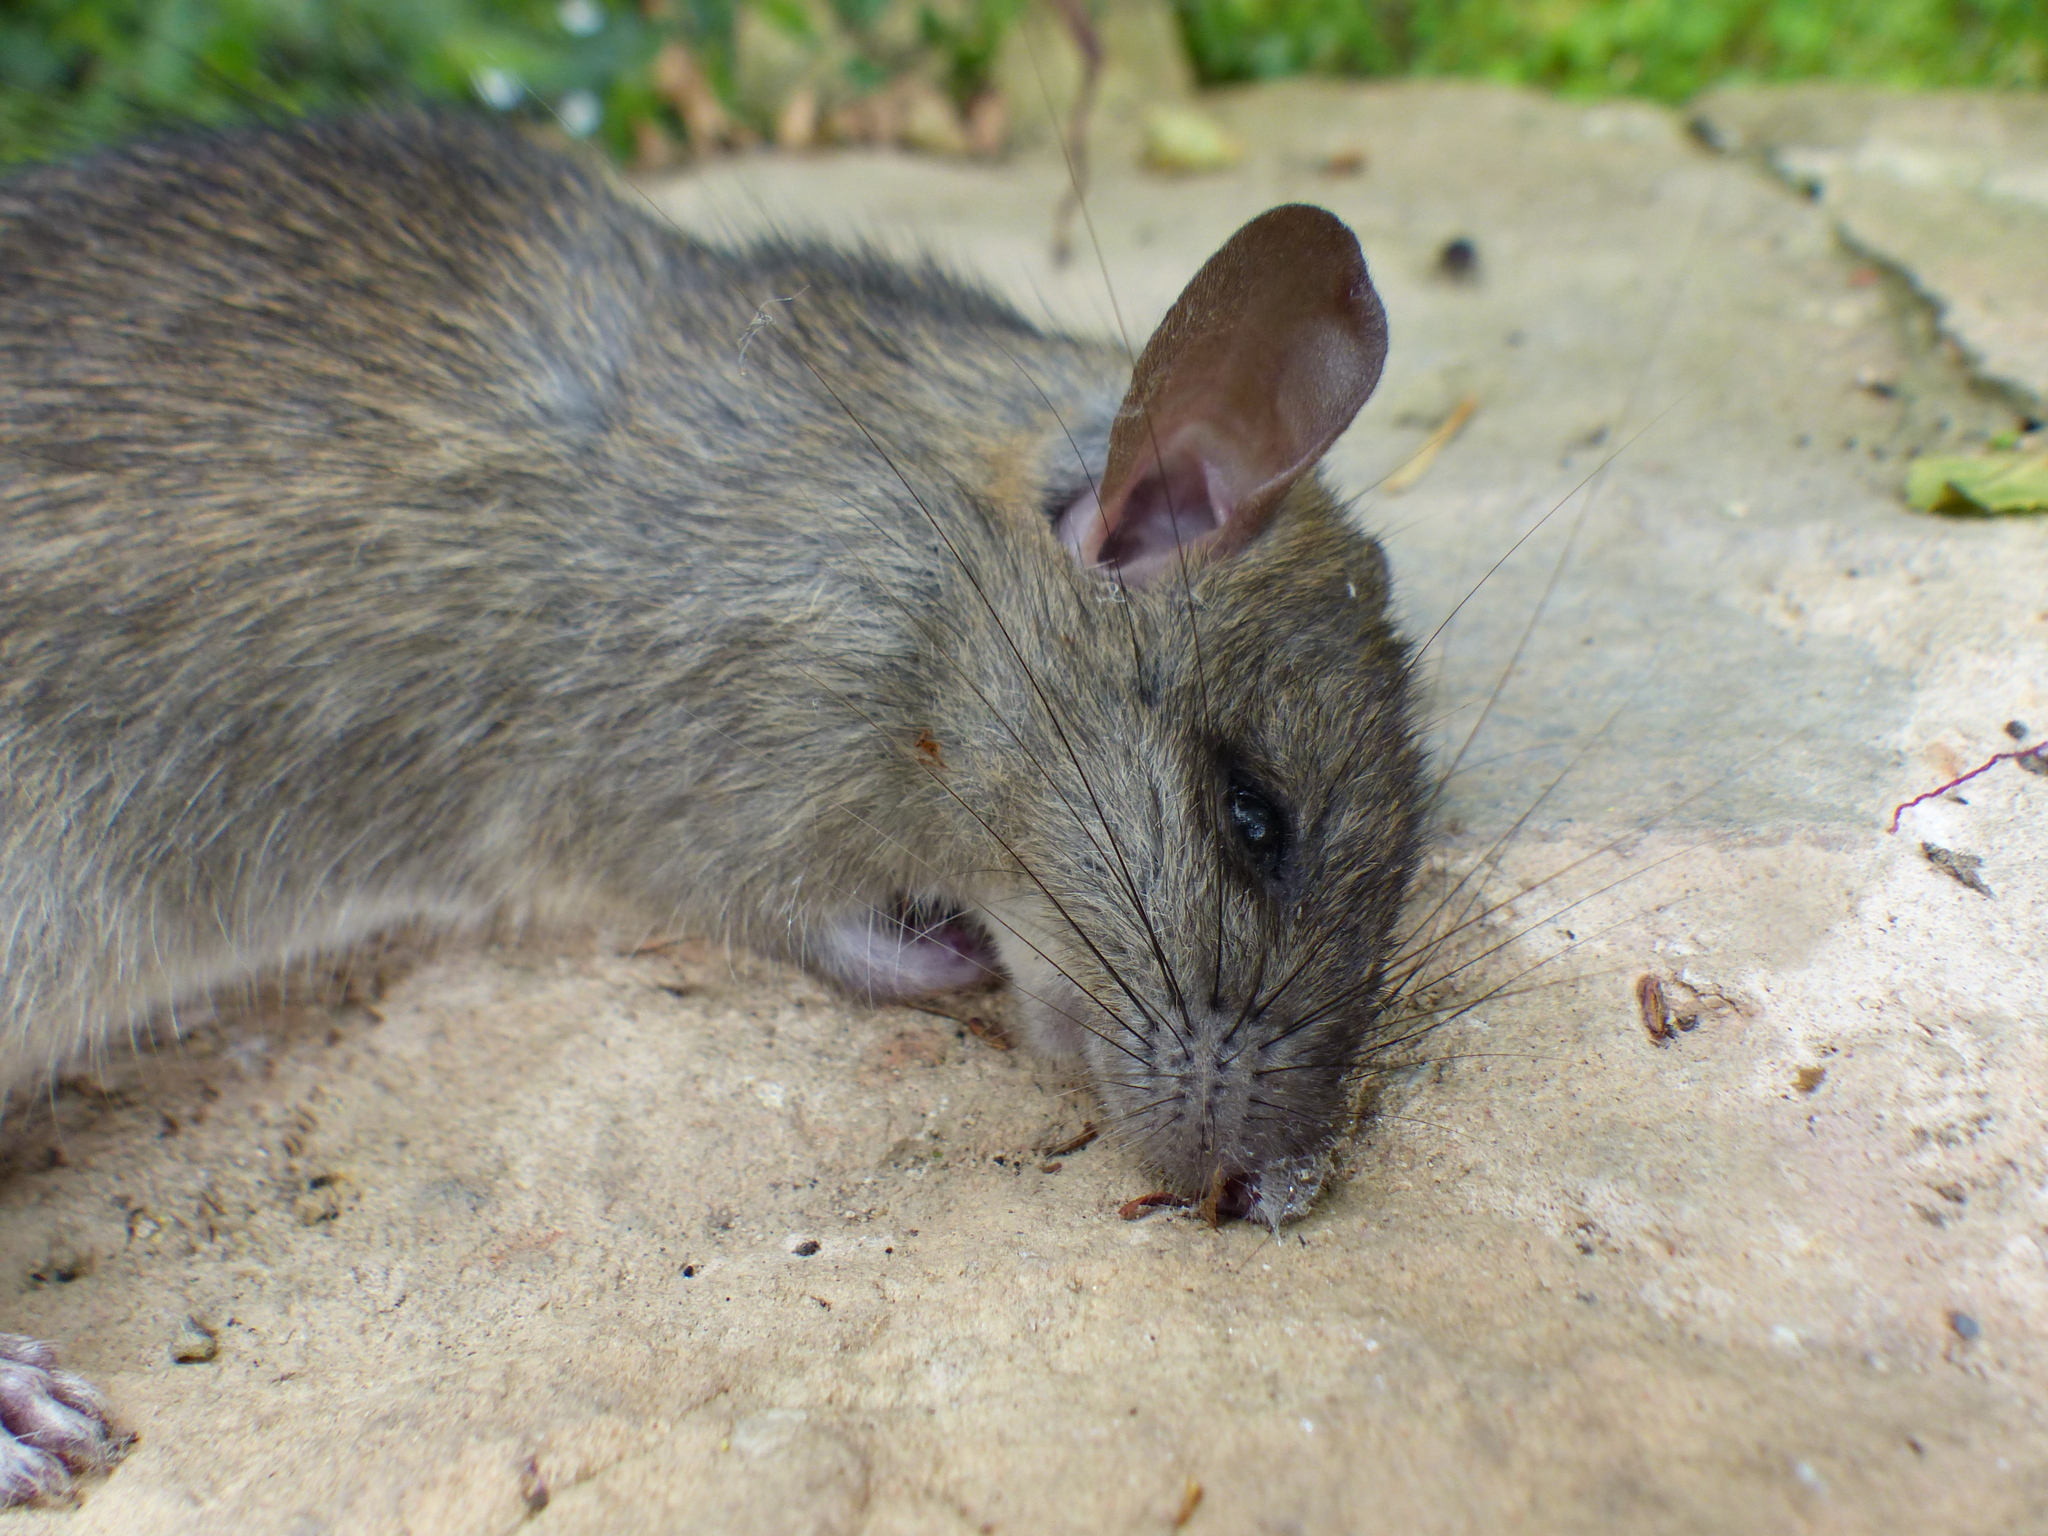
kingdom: Animalia
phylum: Chordata
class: Mammalia
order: Rodentia
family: Muridae
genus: Rattus
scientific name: Rattus rattus
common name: Black rat
